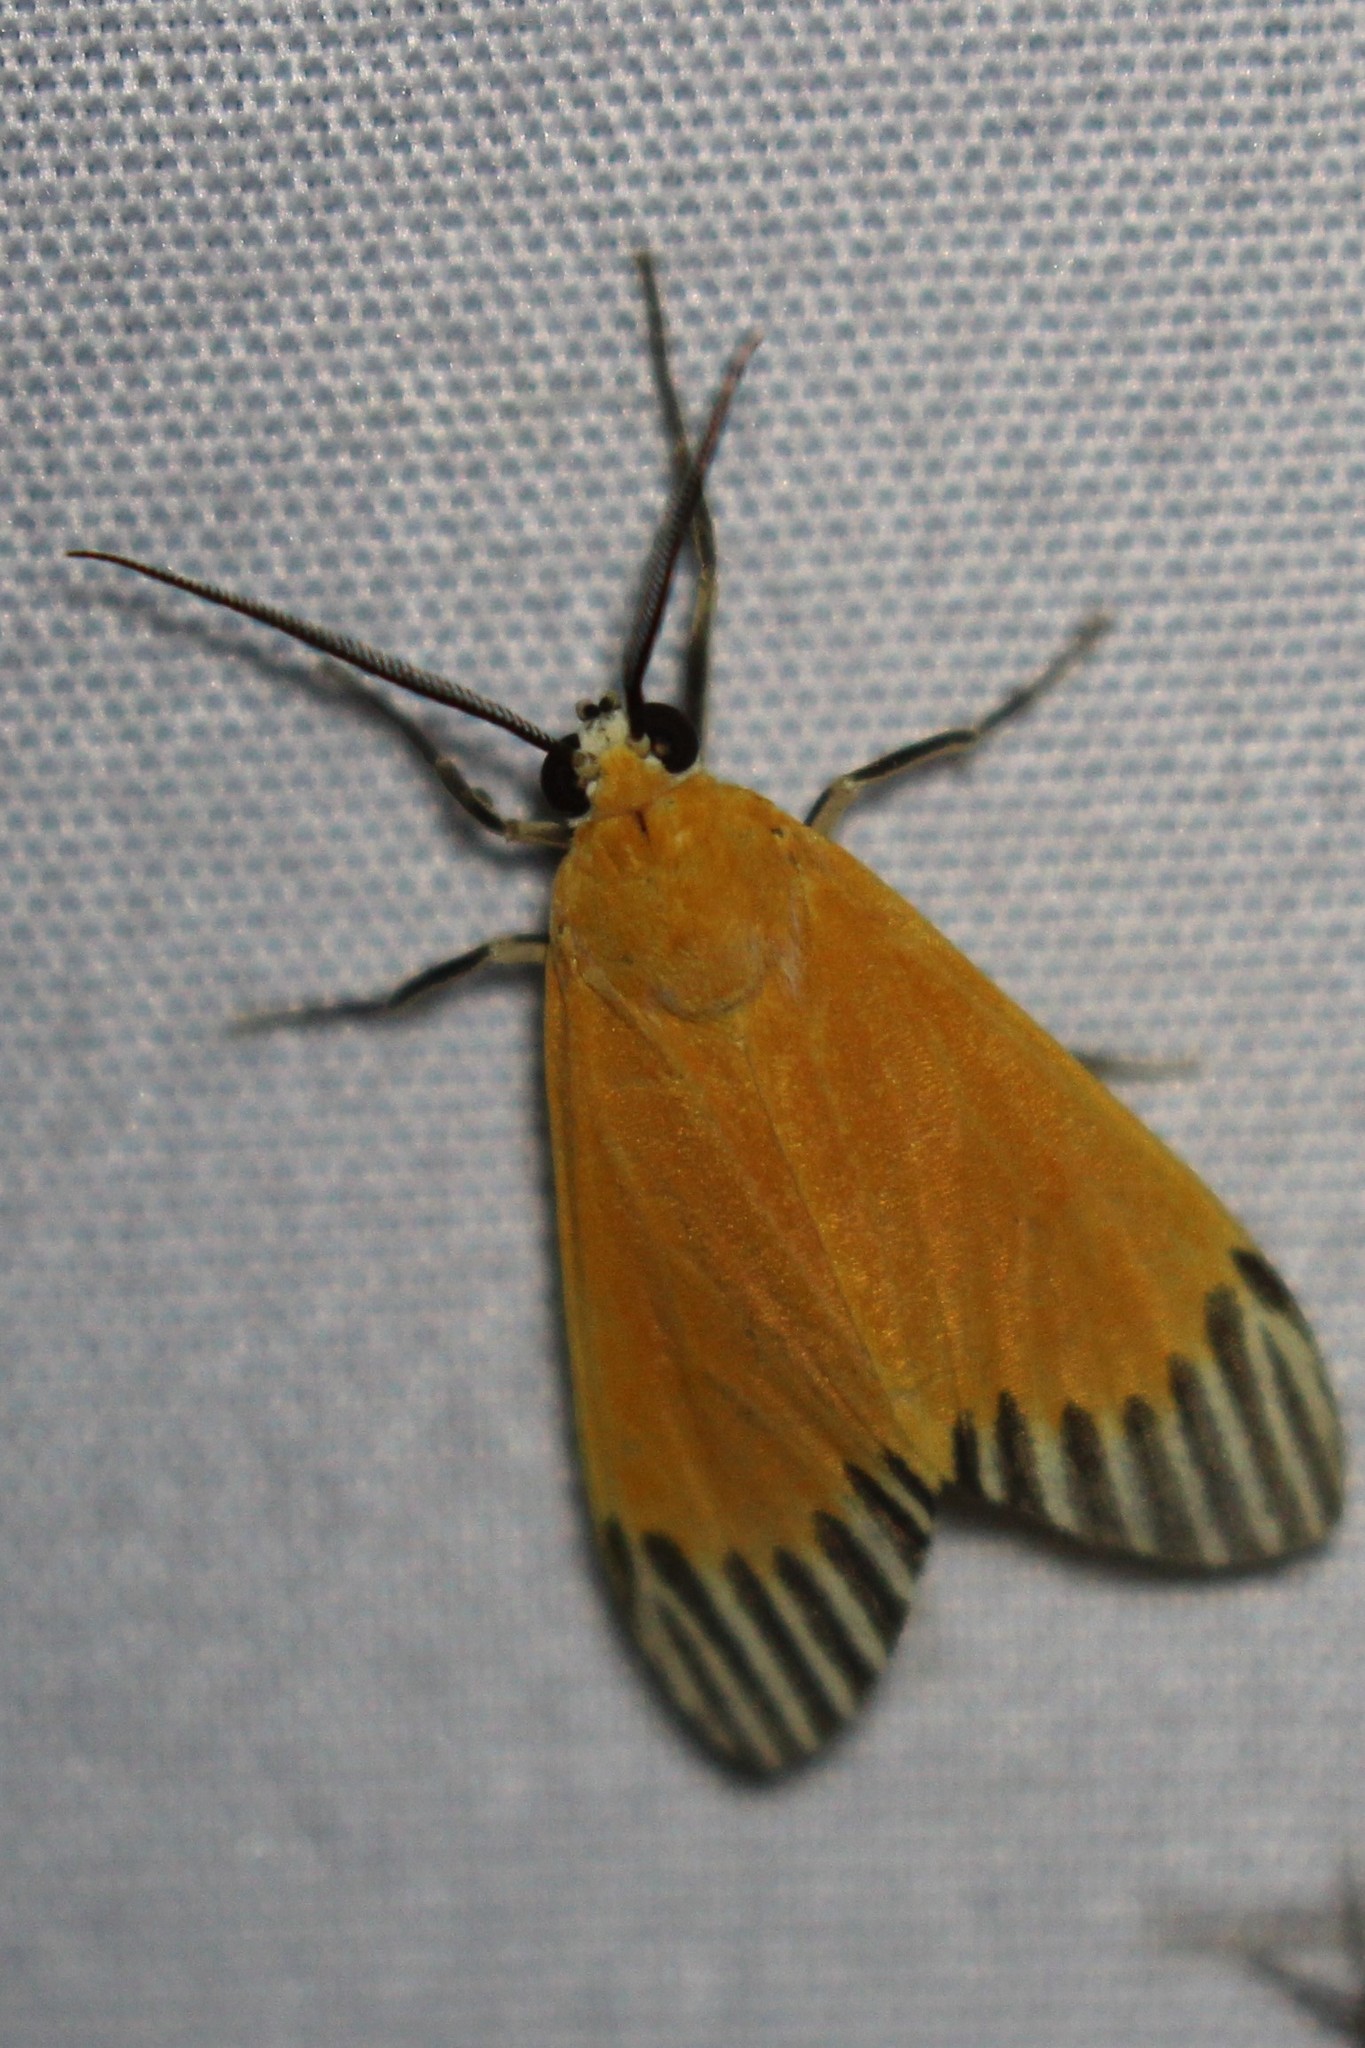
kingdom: Animalia
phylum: Arthropoda
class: Insecta
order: Lepidoptera
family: Erebidae
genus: Uranophora
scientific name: Uranophora walkeri
